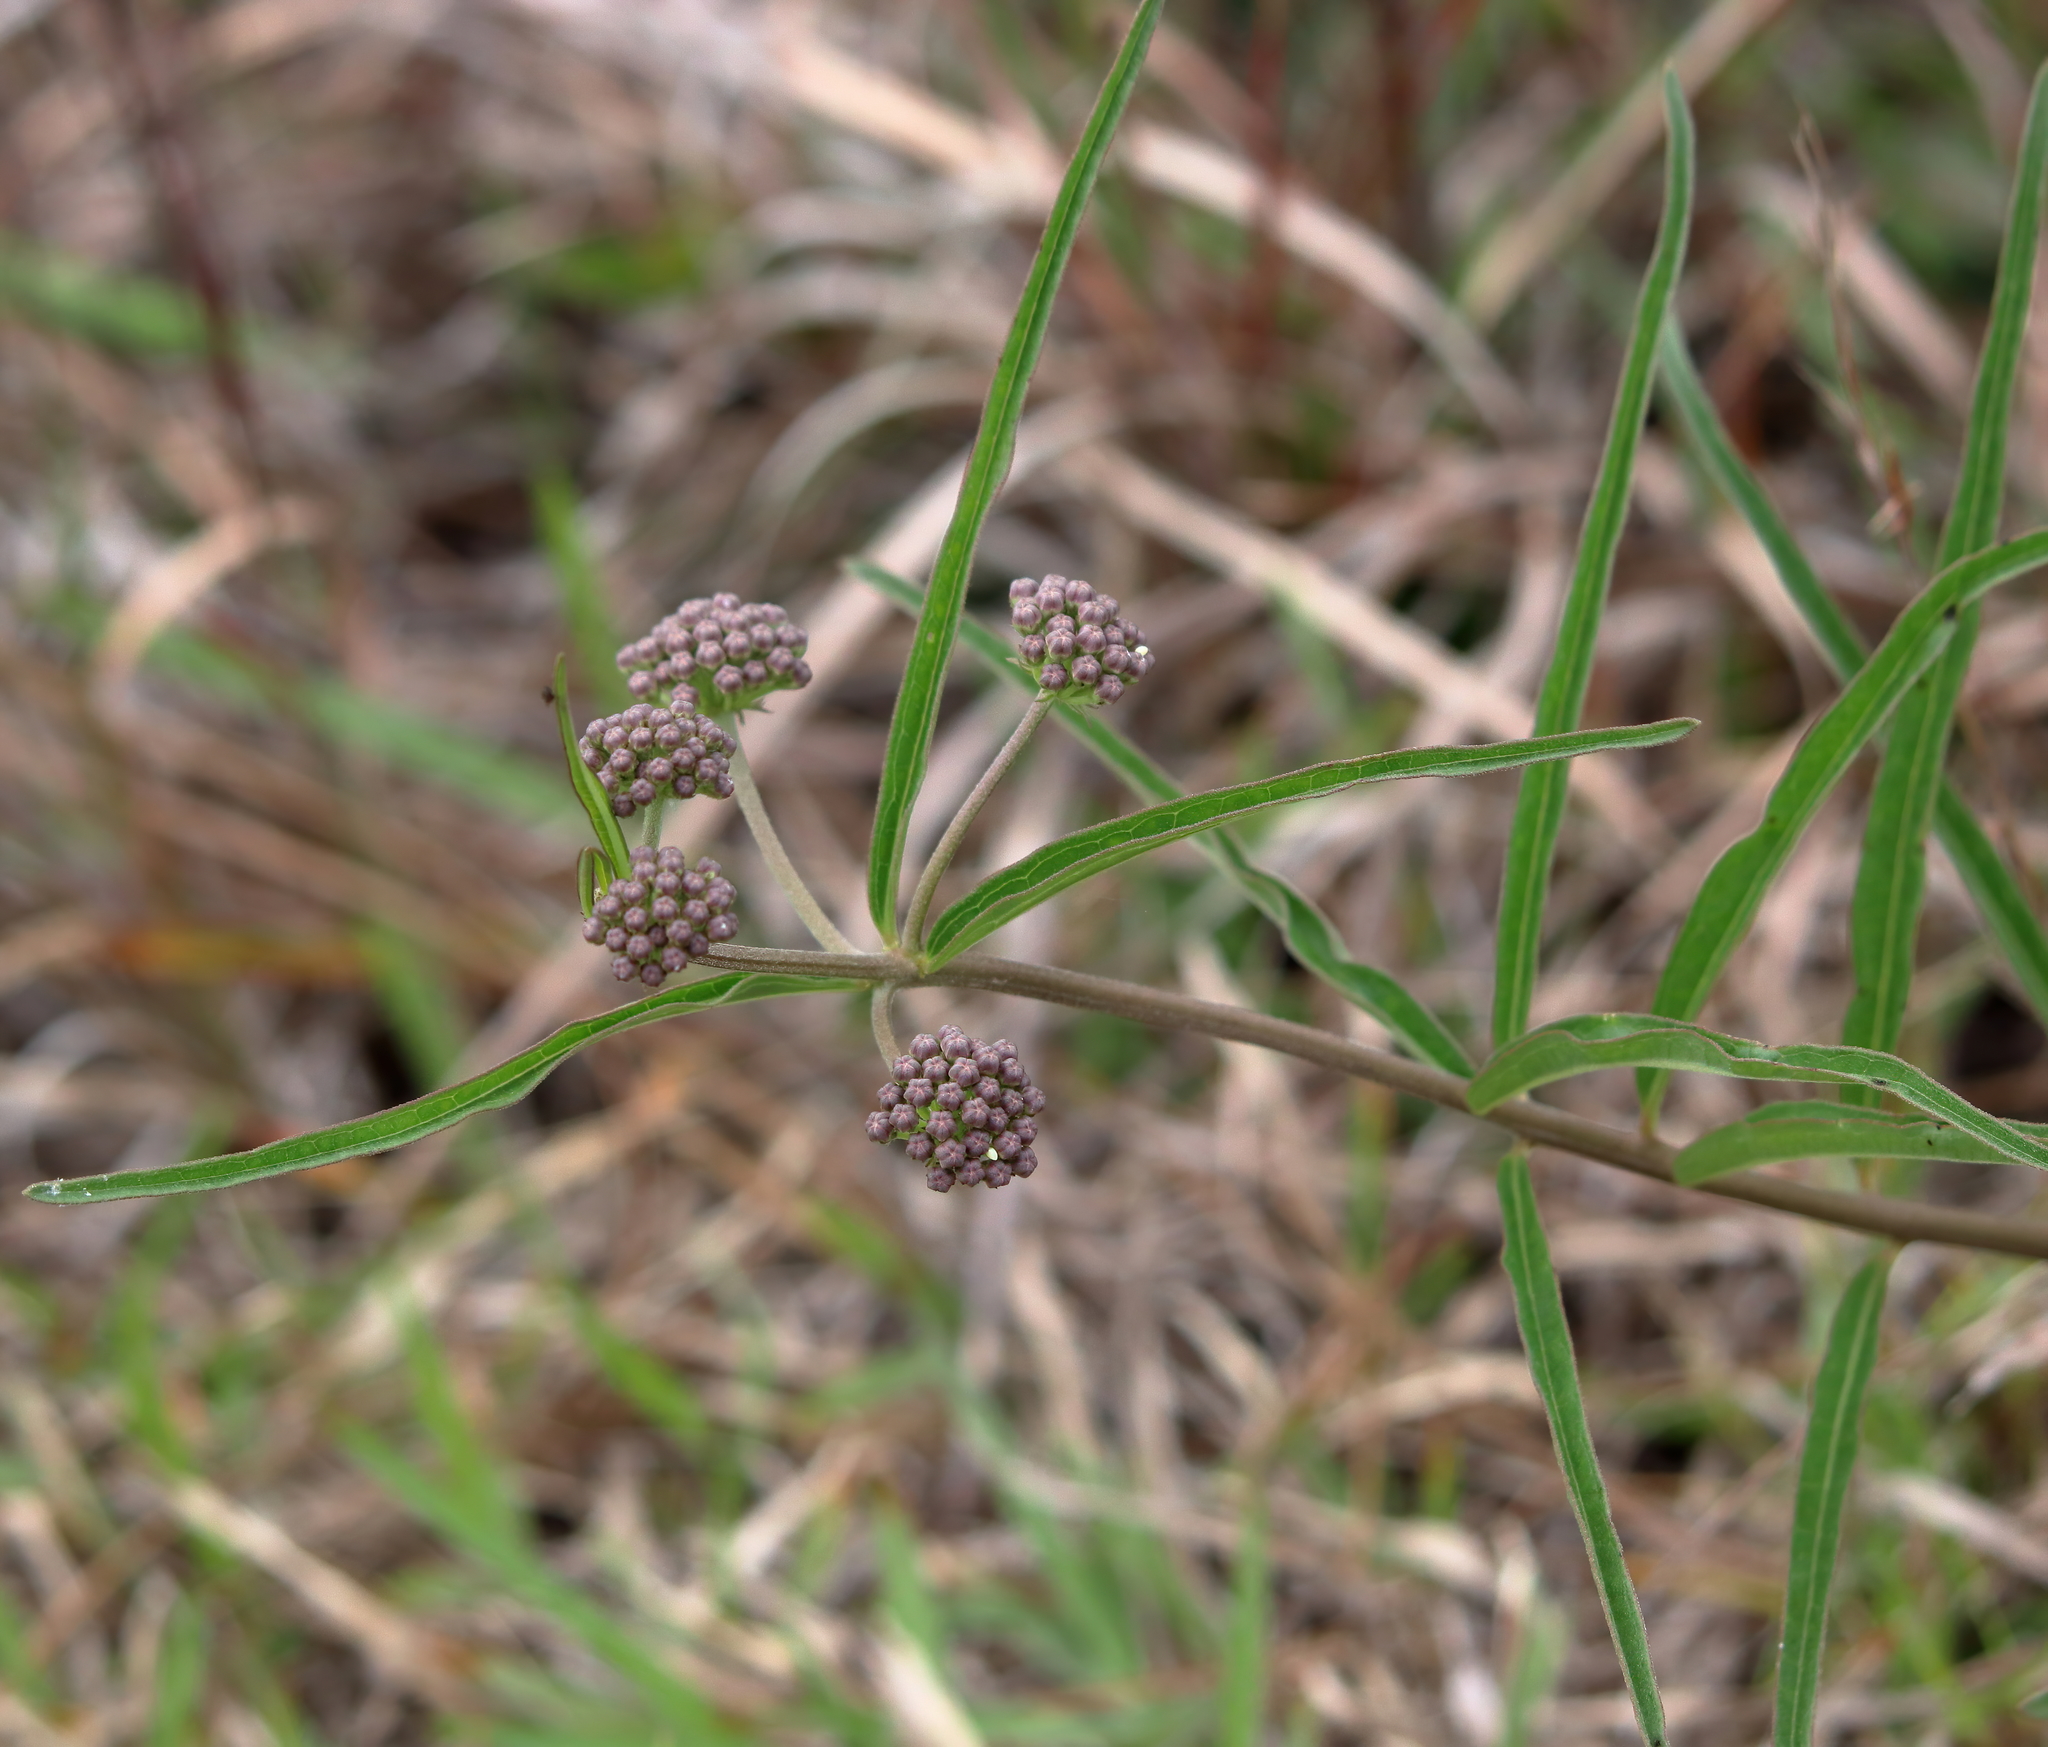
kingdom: Plantae
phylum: Tracheophyta
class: Magnoliopsida
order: Gentianales
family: Apocynaceae
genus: Asclepias
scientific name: Asclepias longifolia
